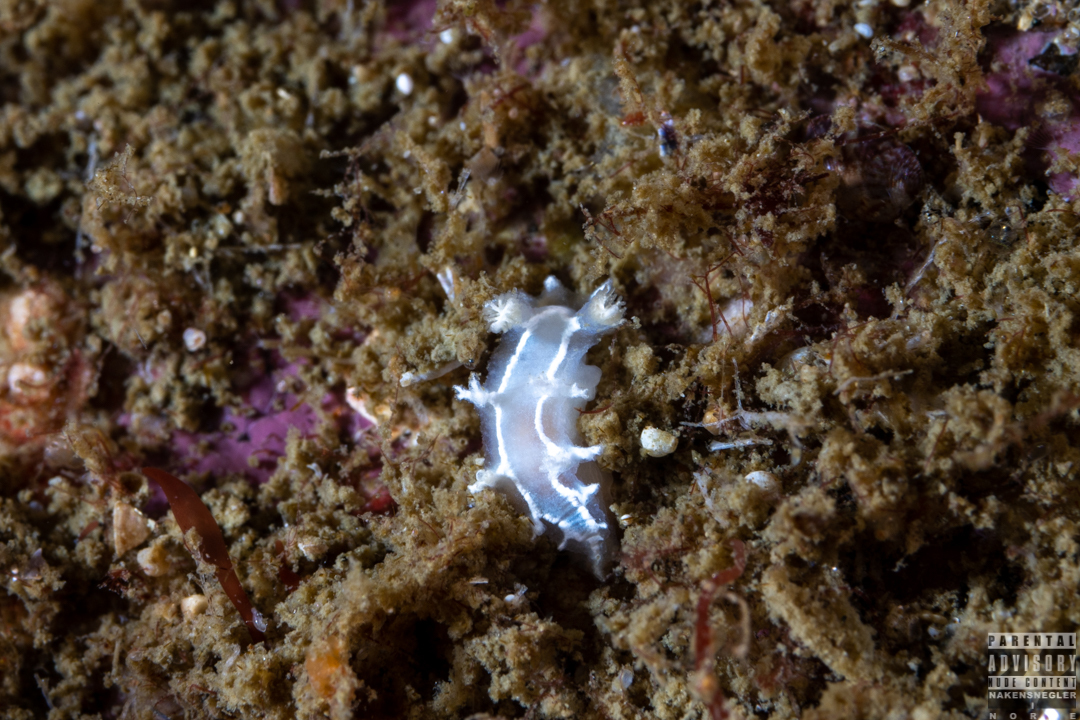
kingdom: Animalia
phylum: Mollusca
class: Gastropoda
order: Nudibranchia
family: Tritoniidae
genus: Duvaucelia
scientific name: Duvaucelia lineata
